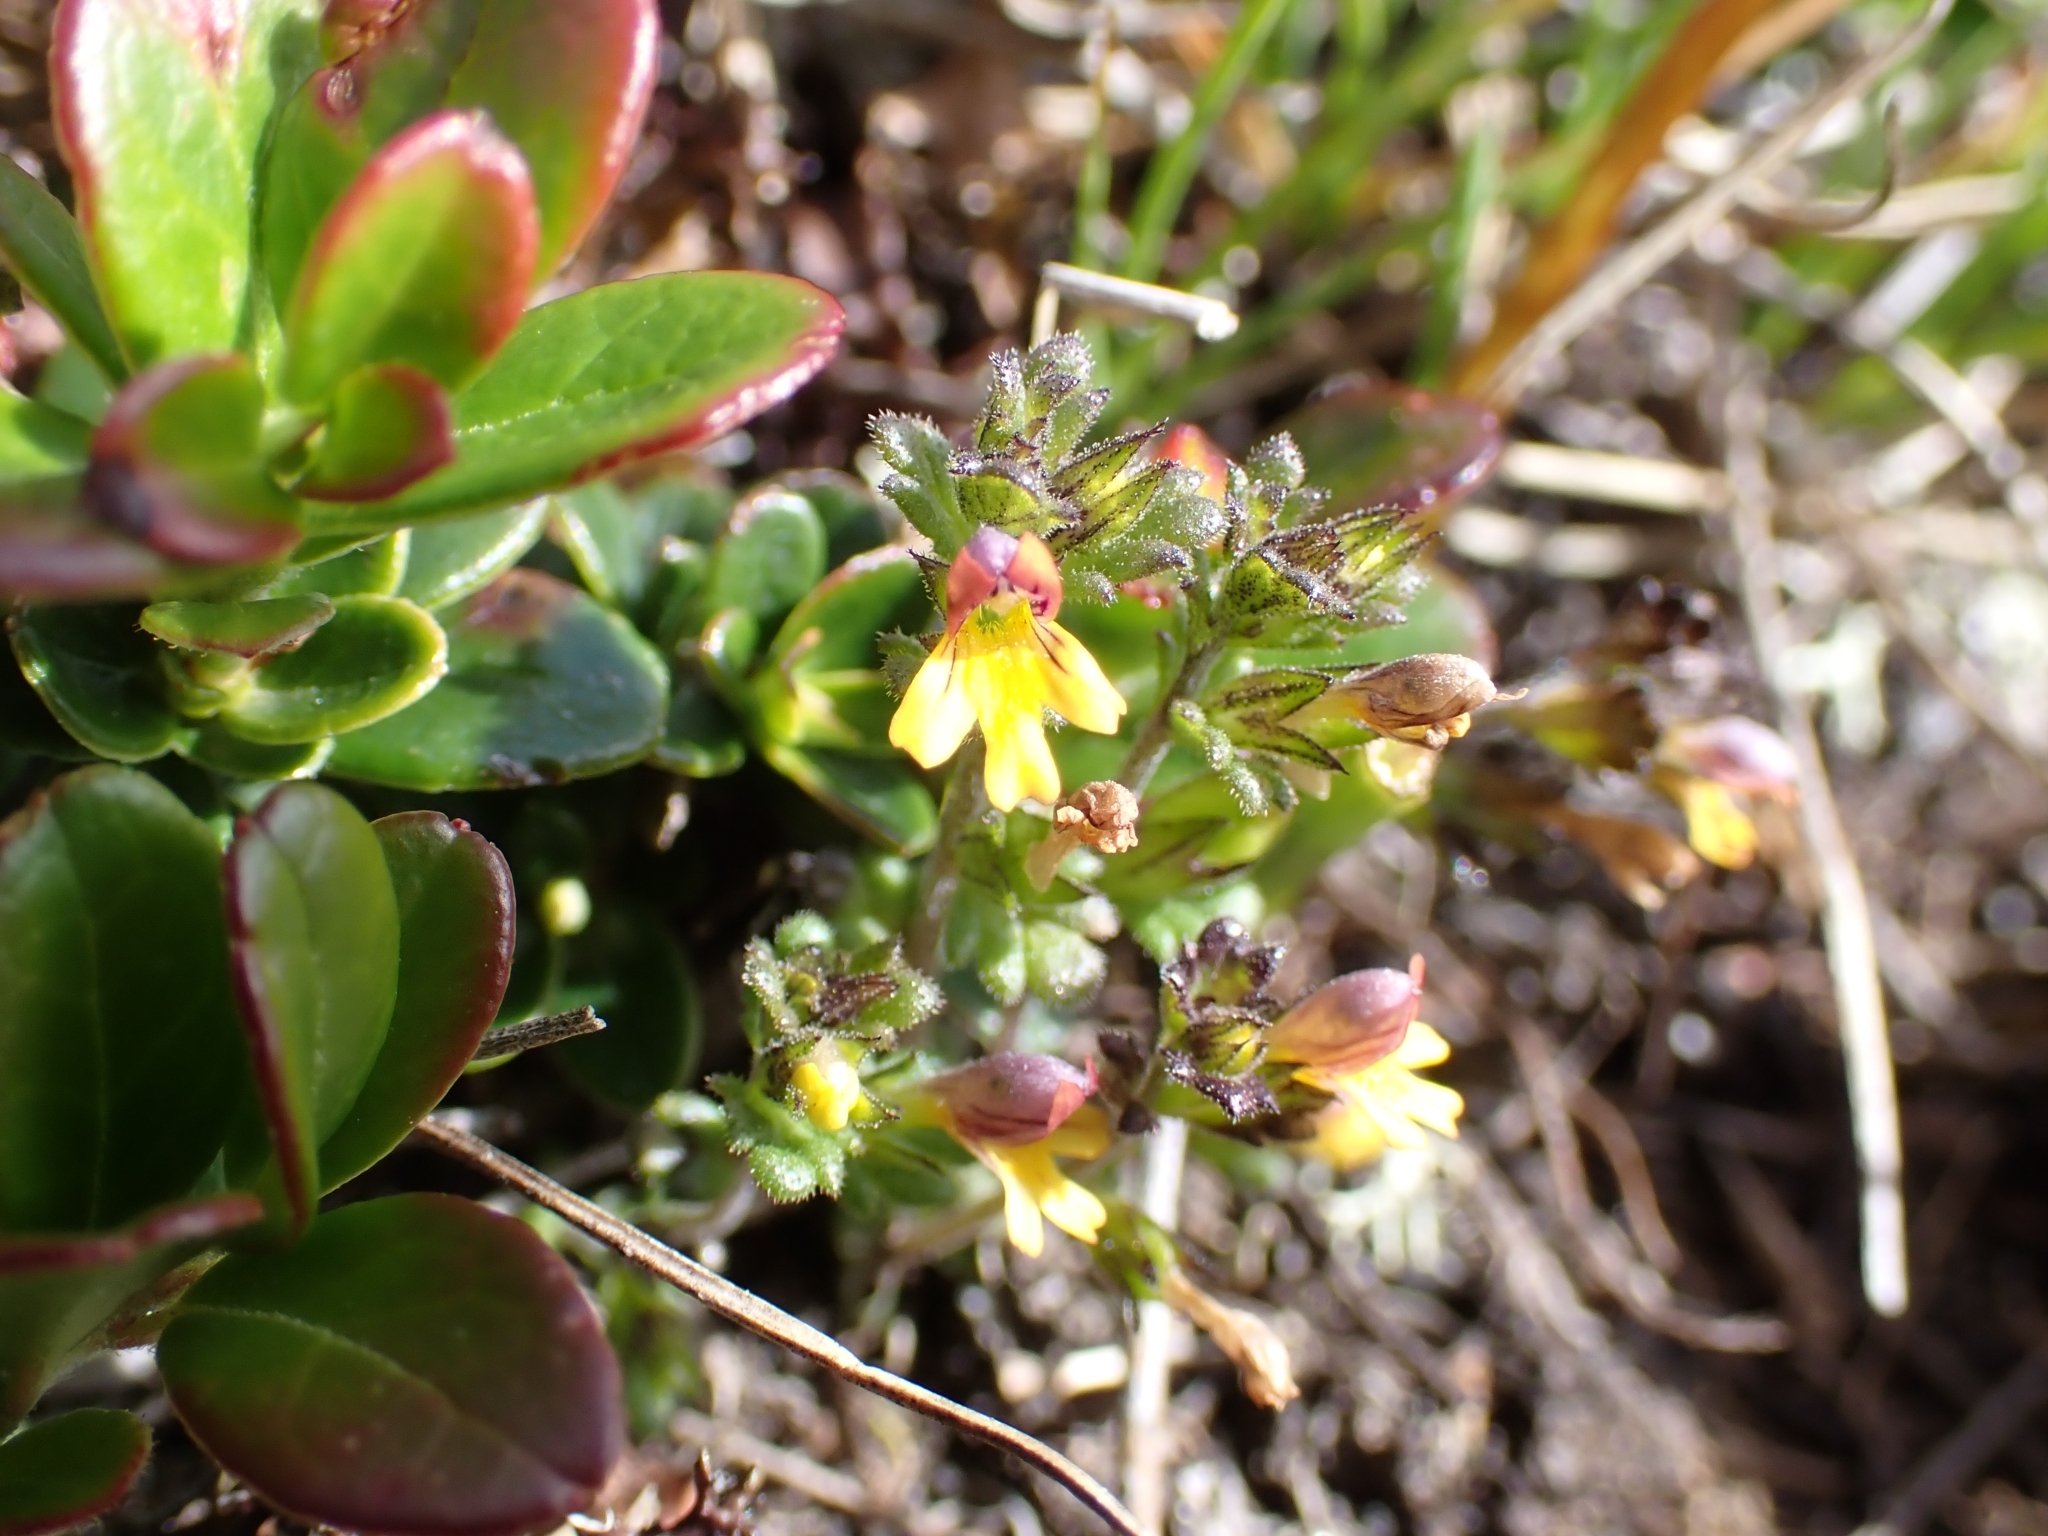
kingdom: Plantae
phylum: Tracheophyta
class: Magnoliopsida
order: Lamiales
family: Orobanchaceae
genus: Euphrasia
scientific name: Euphrasia minima
